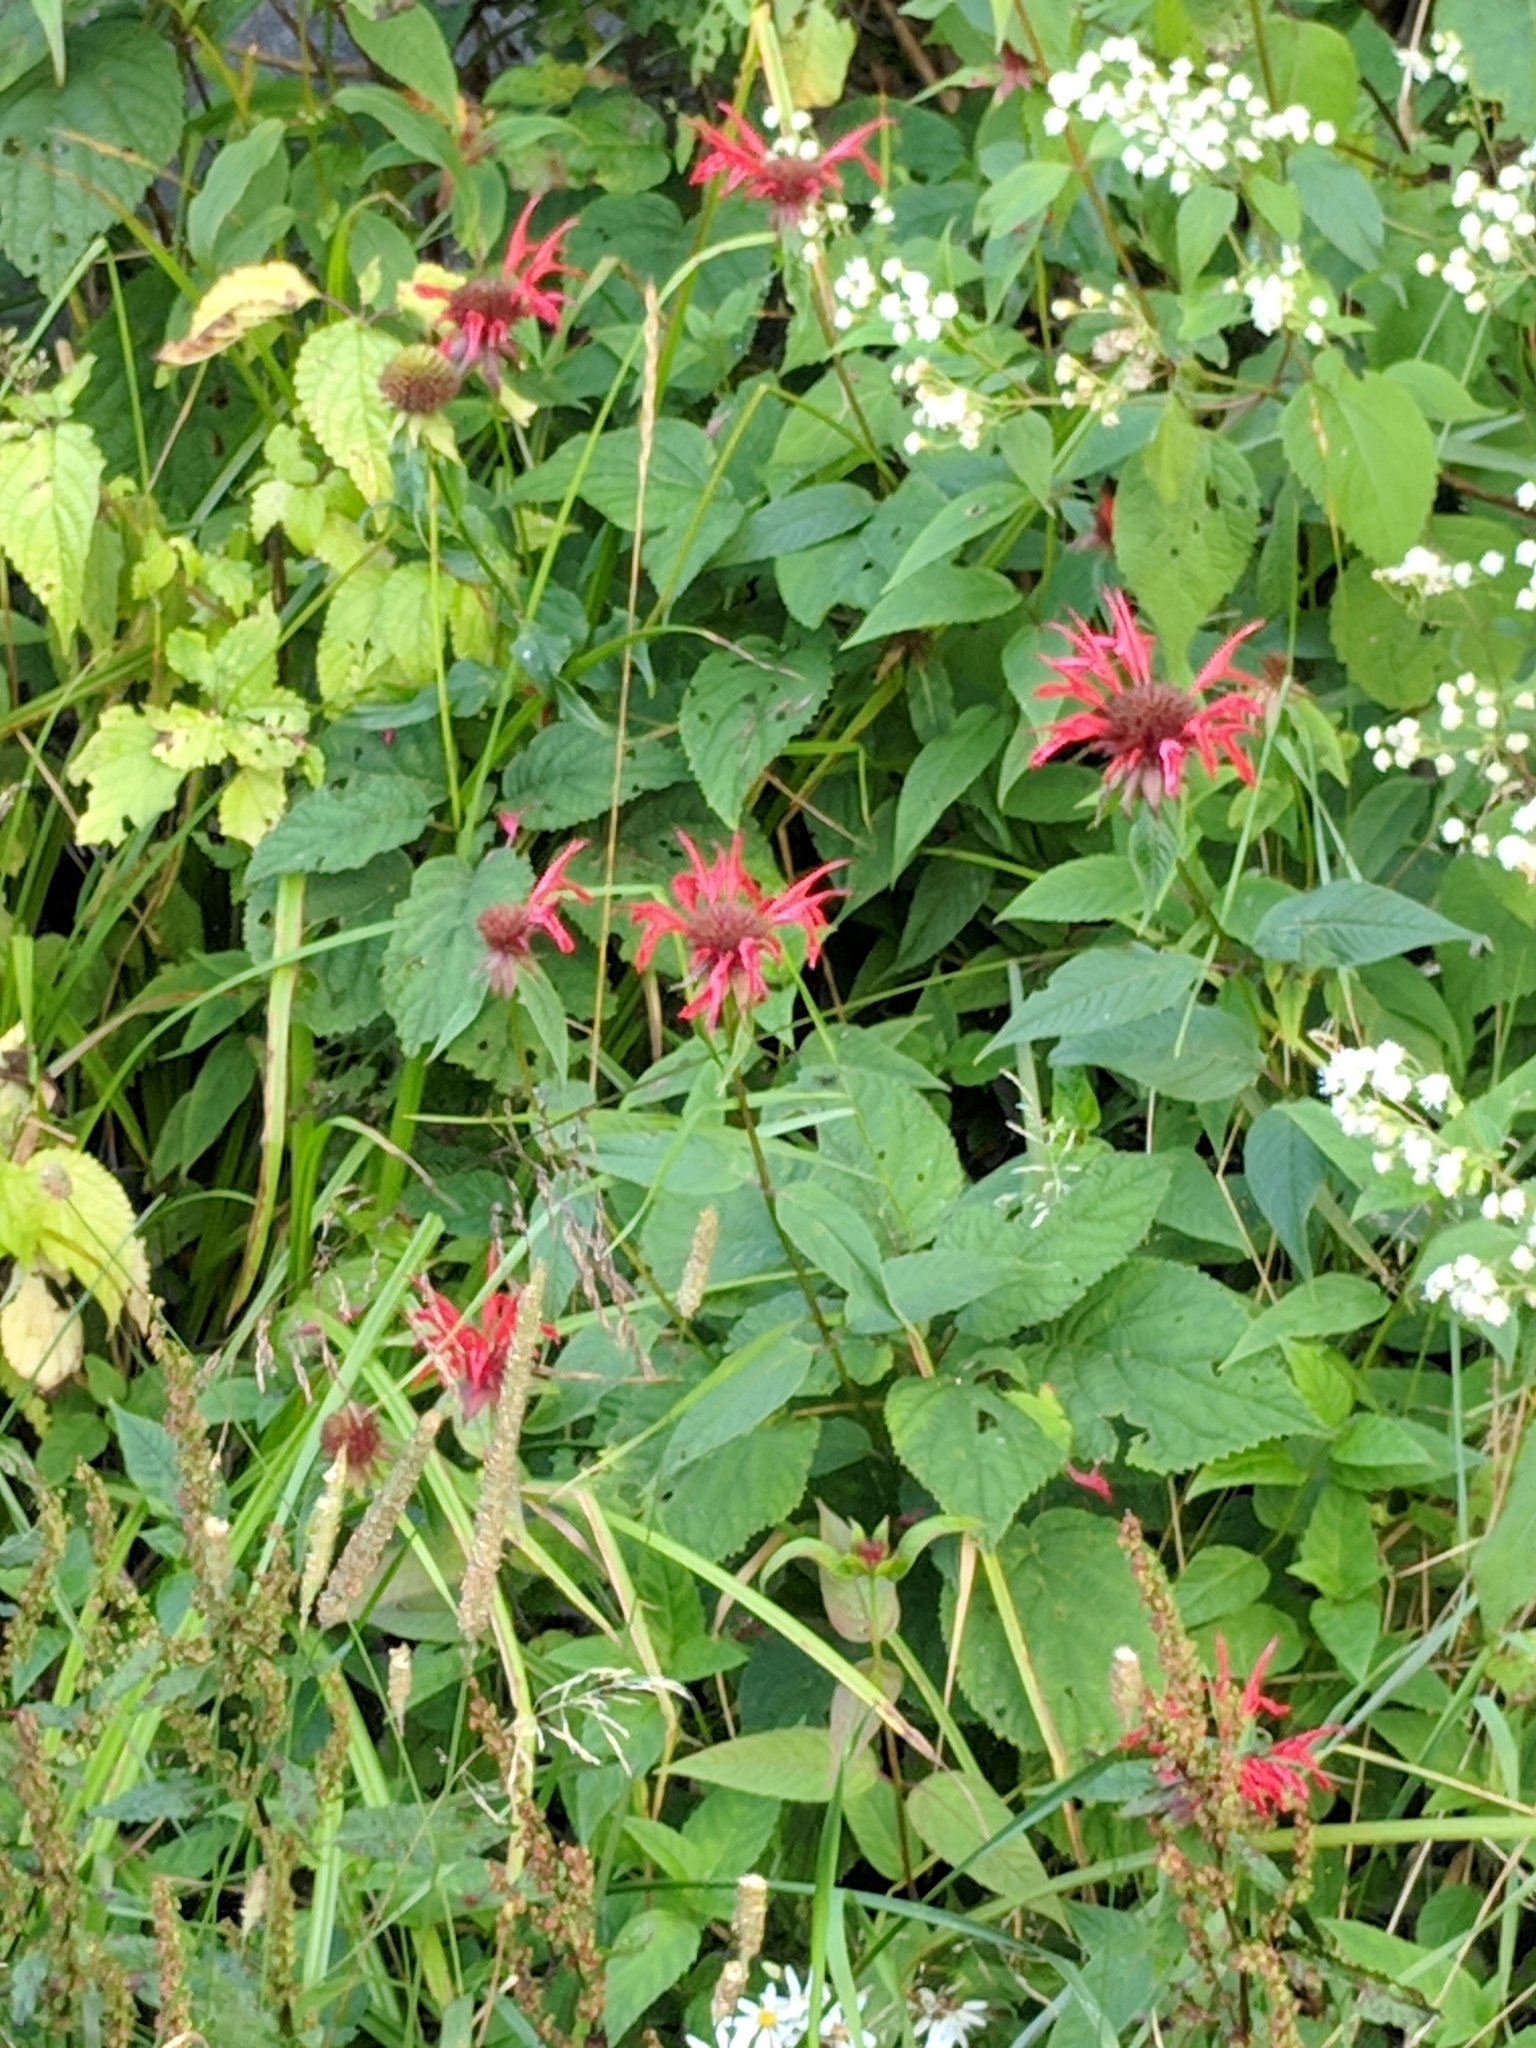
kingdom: Plantae
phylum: Tracheophyta
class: Magnoliopsida
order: Lamiales
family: Lamiaceae
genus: Monarda
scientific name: Monarda didyma
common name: Beebalm
